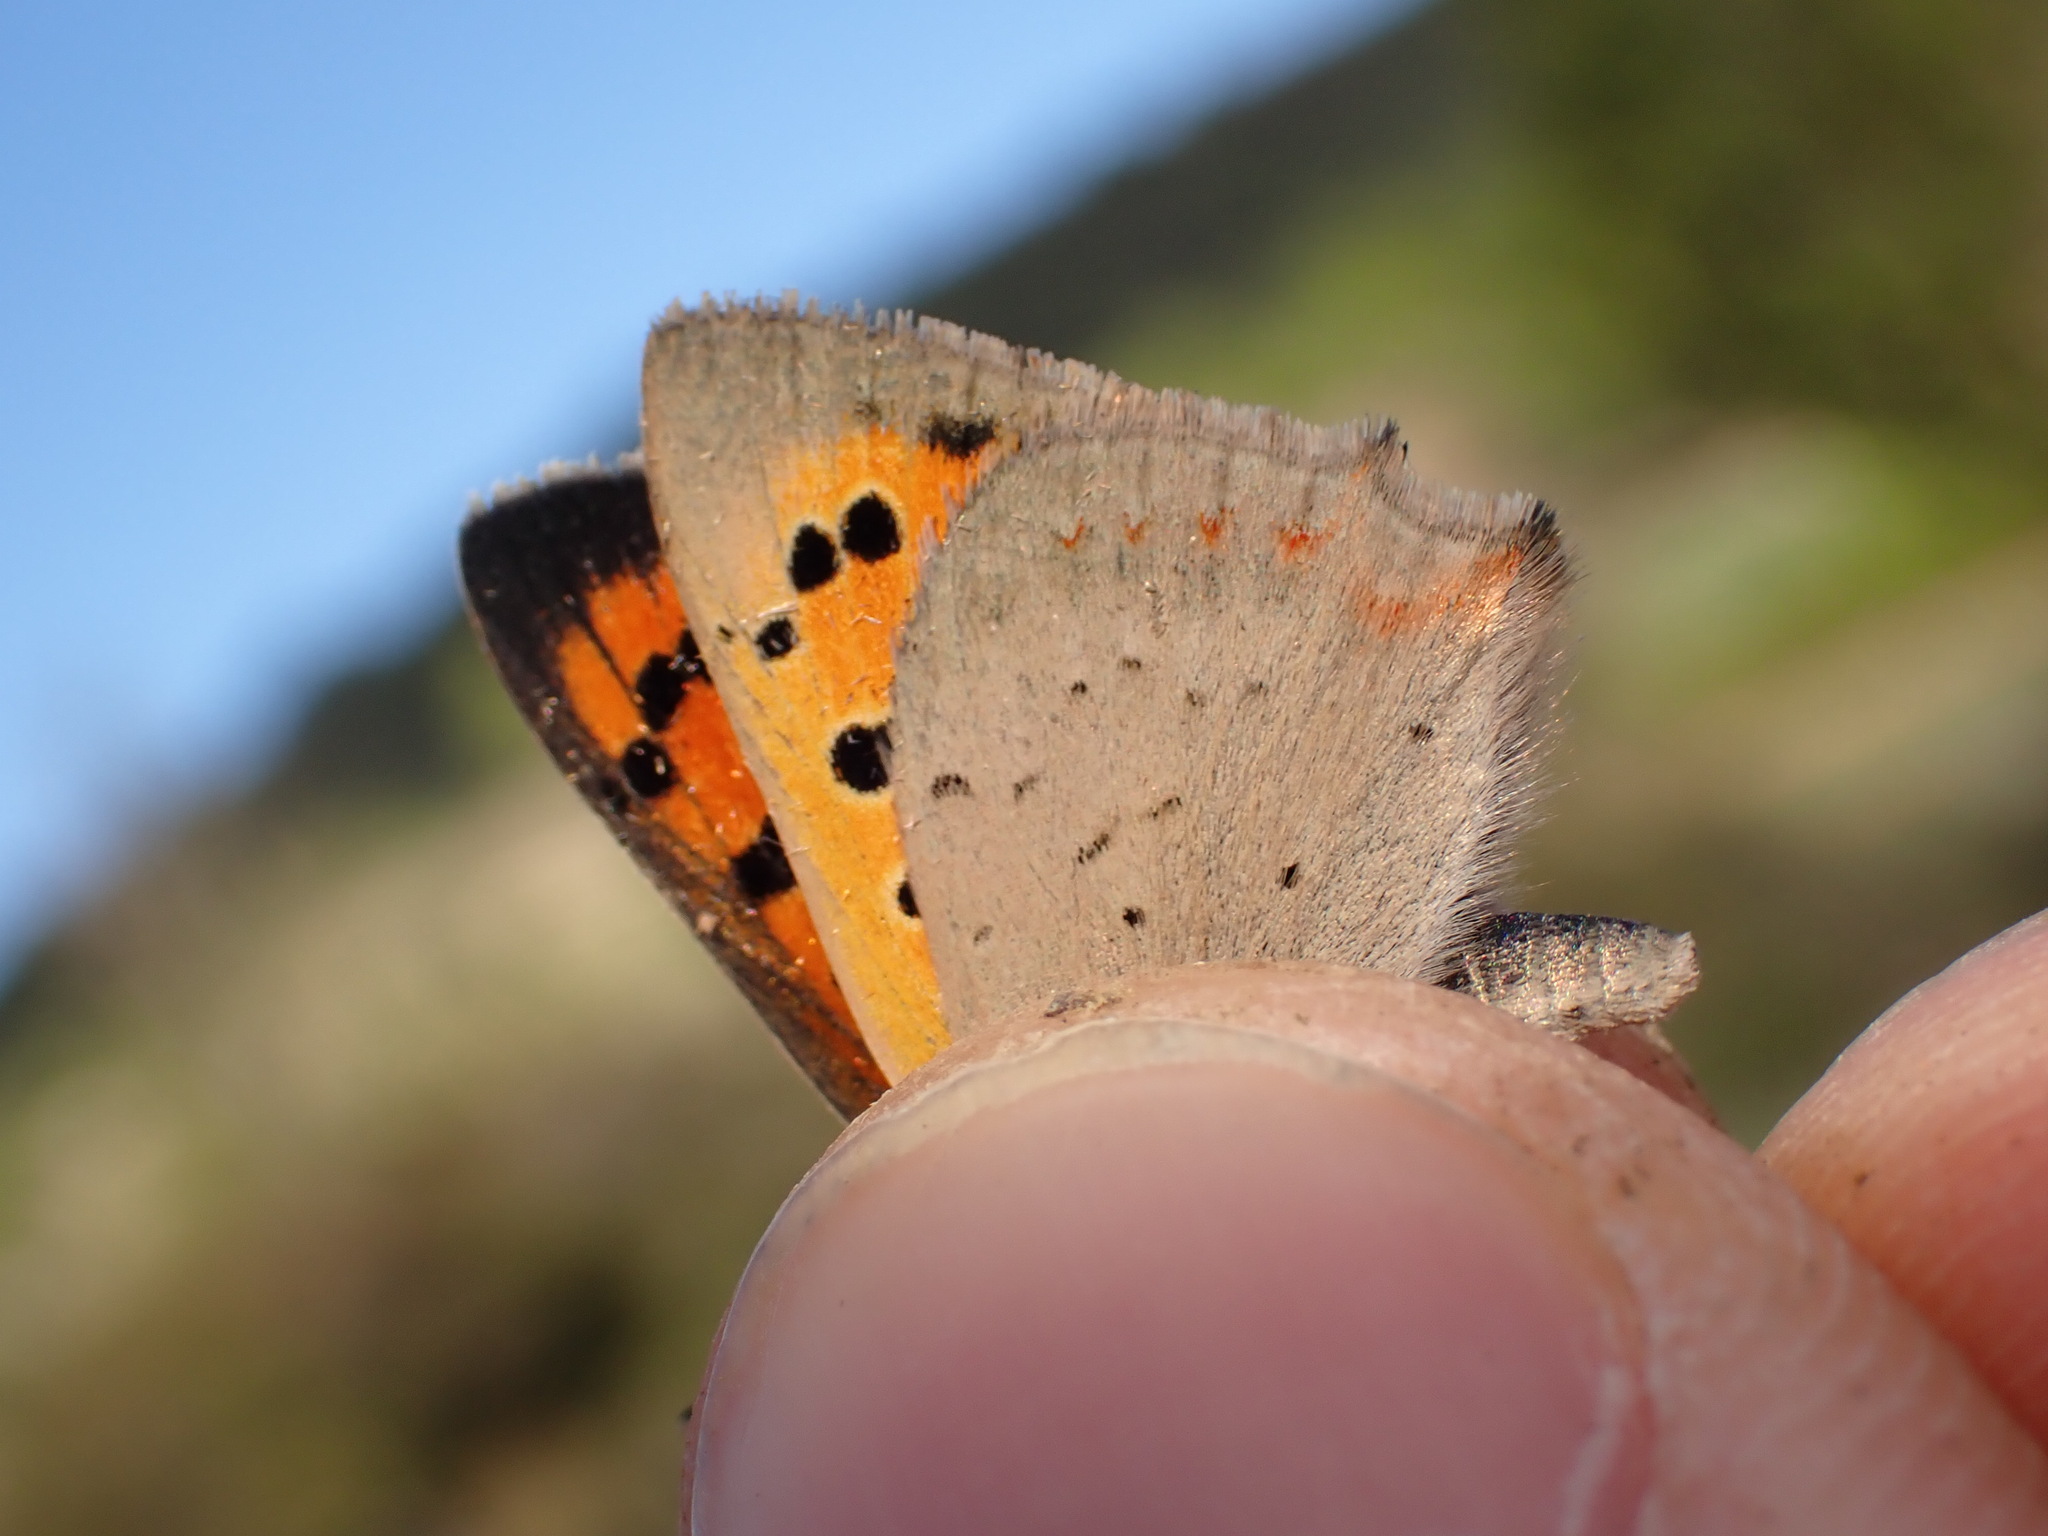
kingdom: Animalia
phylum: Arthropoda
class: Insecta
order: Lepidoptera
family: Lycaenidae
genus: Lycaena
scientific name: Lycaena phlaeas
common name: Small copper
